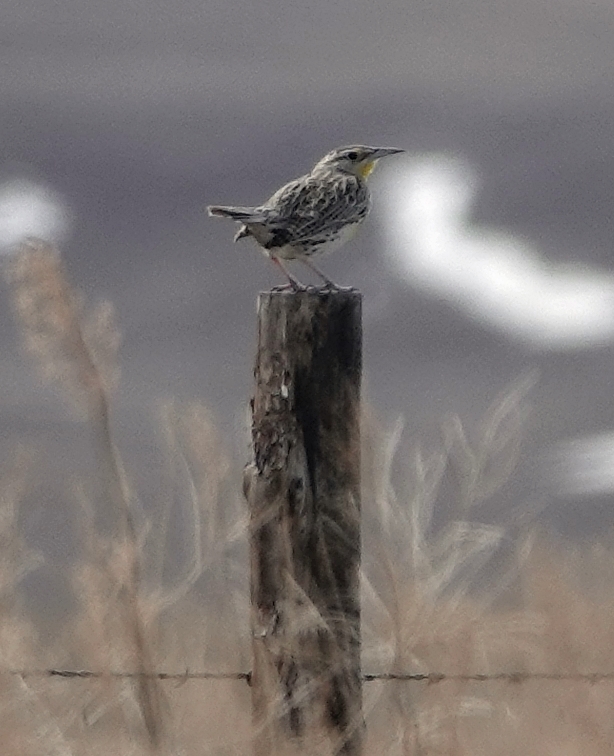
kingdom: Animalia
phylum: Chordata
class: Aves
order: Passeriformes
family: Icteridae
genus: Sturnella
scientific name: Sturnella neglecta
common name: Western meadowlark
